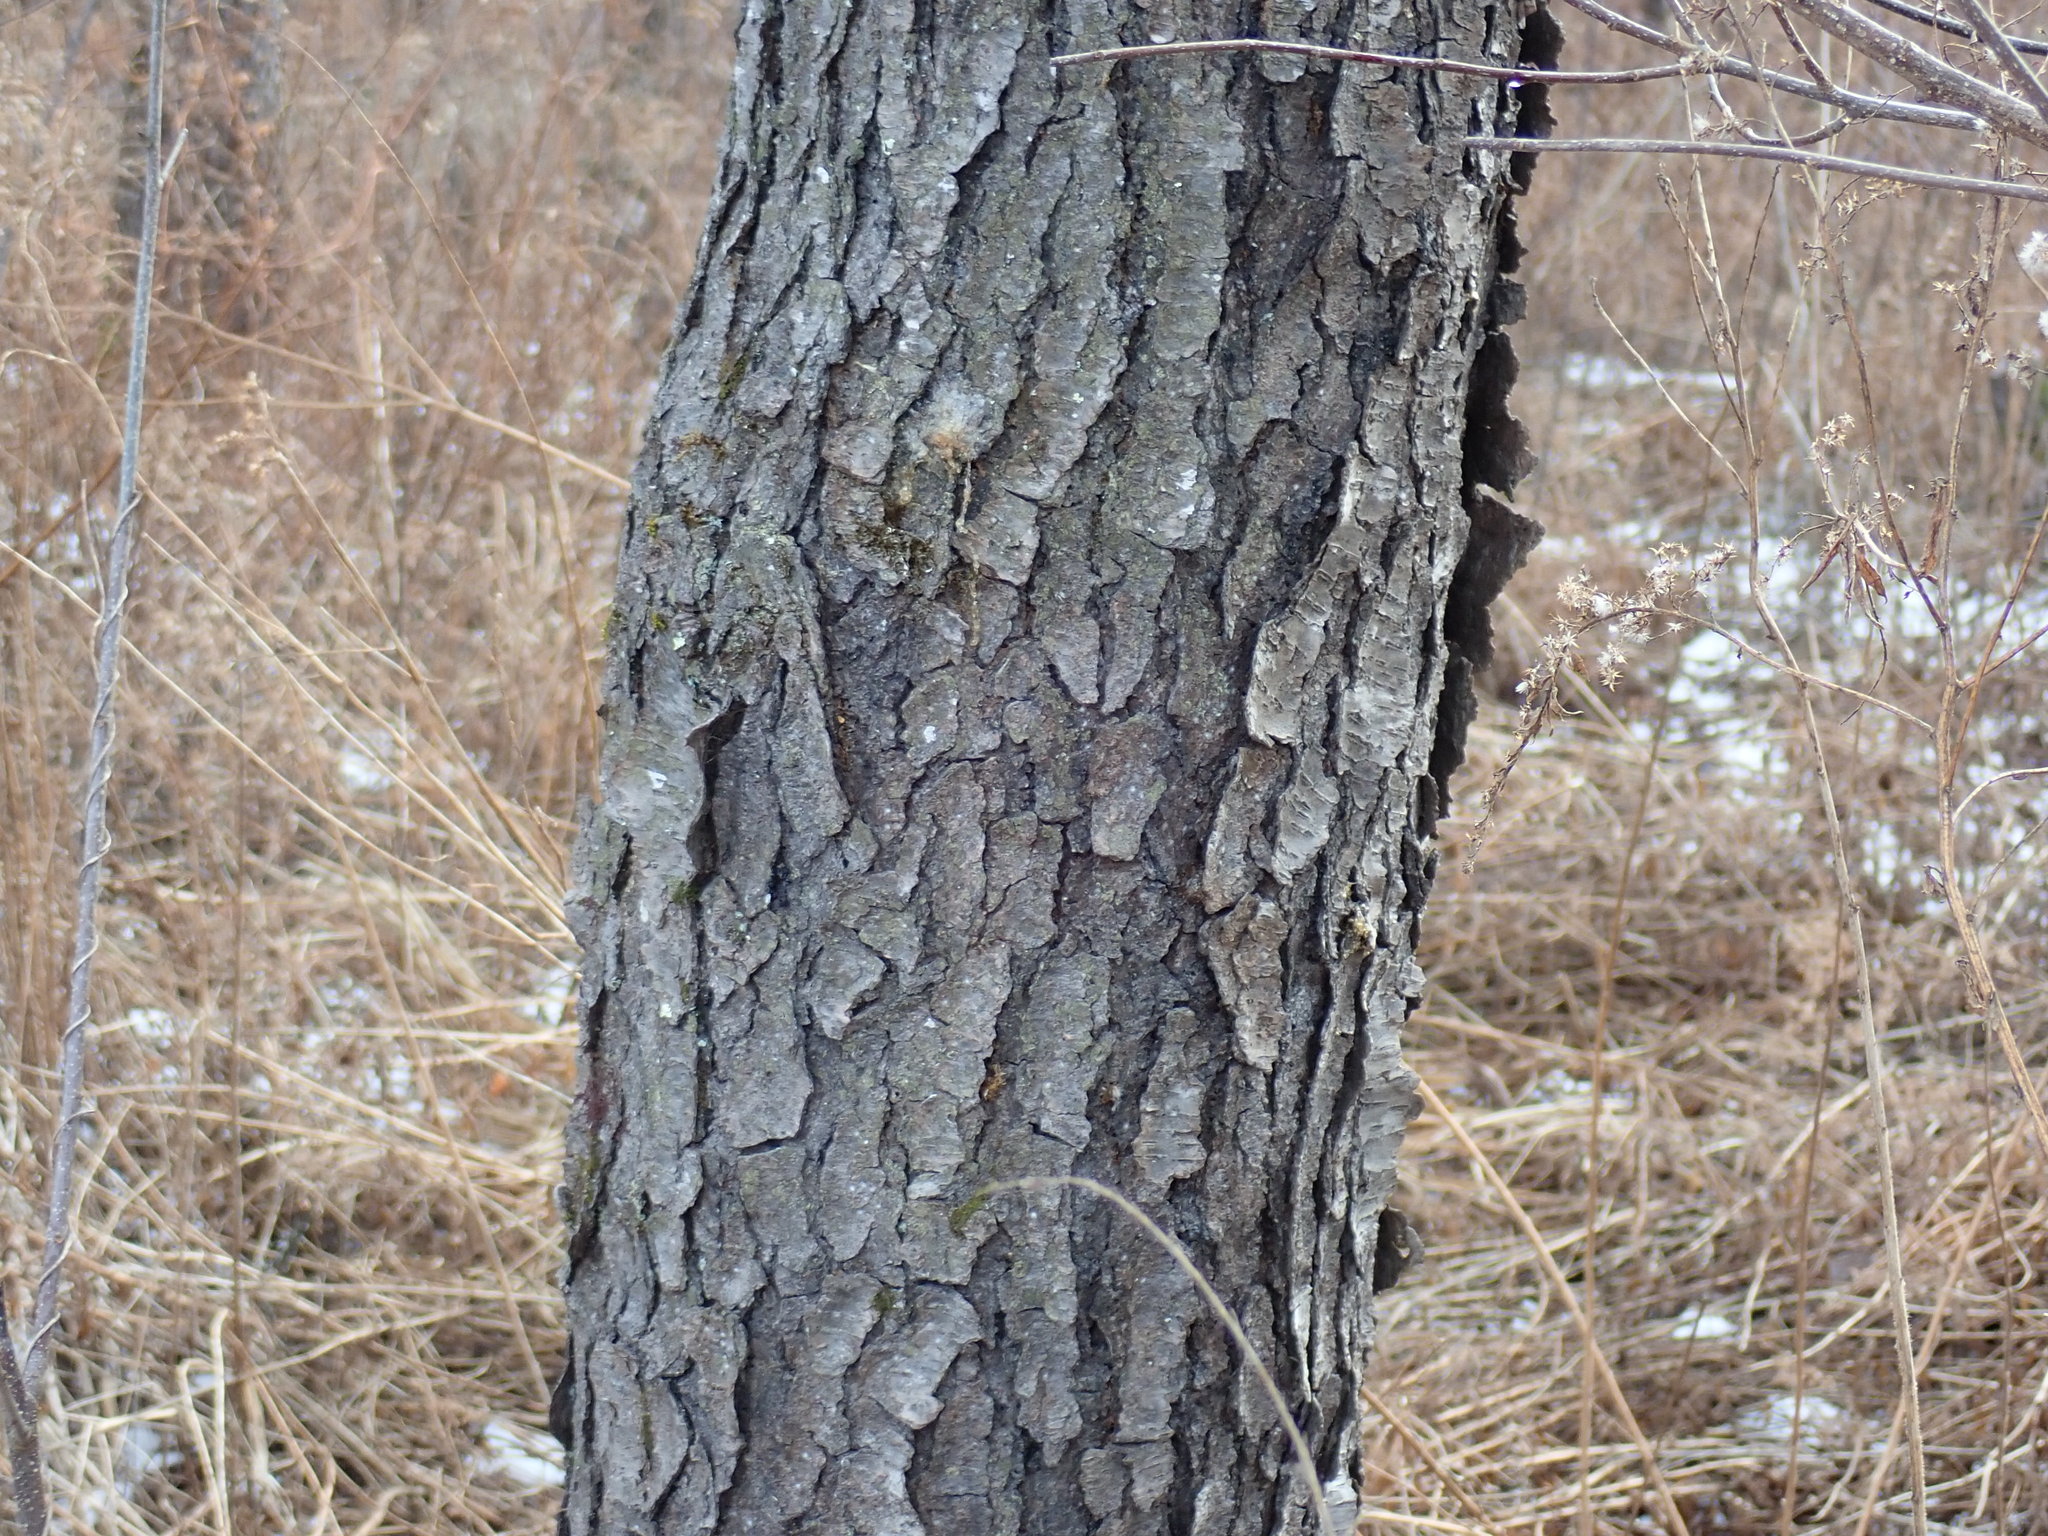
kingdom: Plantae
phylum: Tracheophyta
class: Magnoliopsida
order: Rosales
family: Rosaceae
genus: Prunus
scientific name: Prunus serotina
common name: Black cherry
